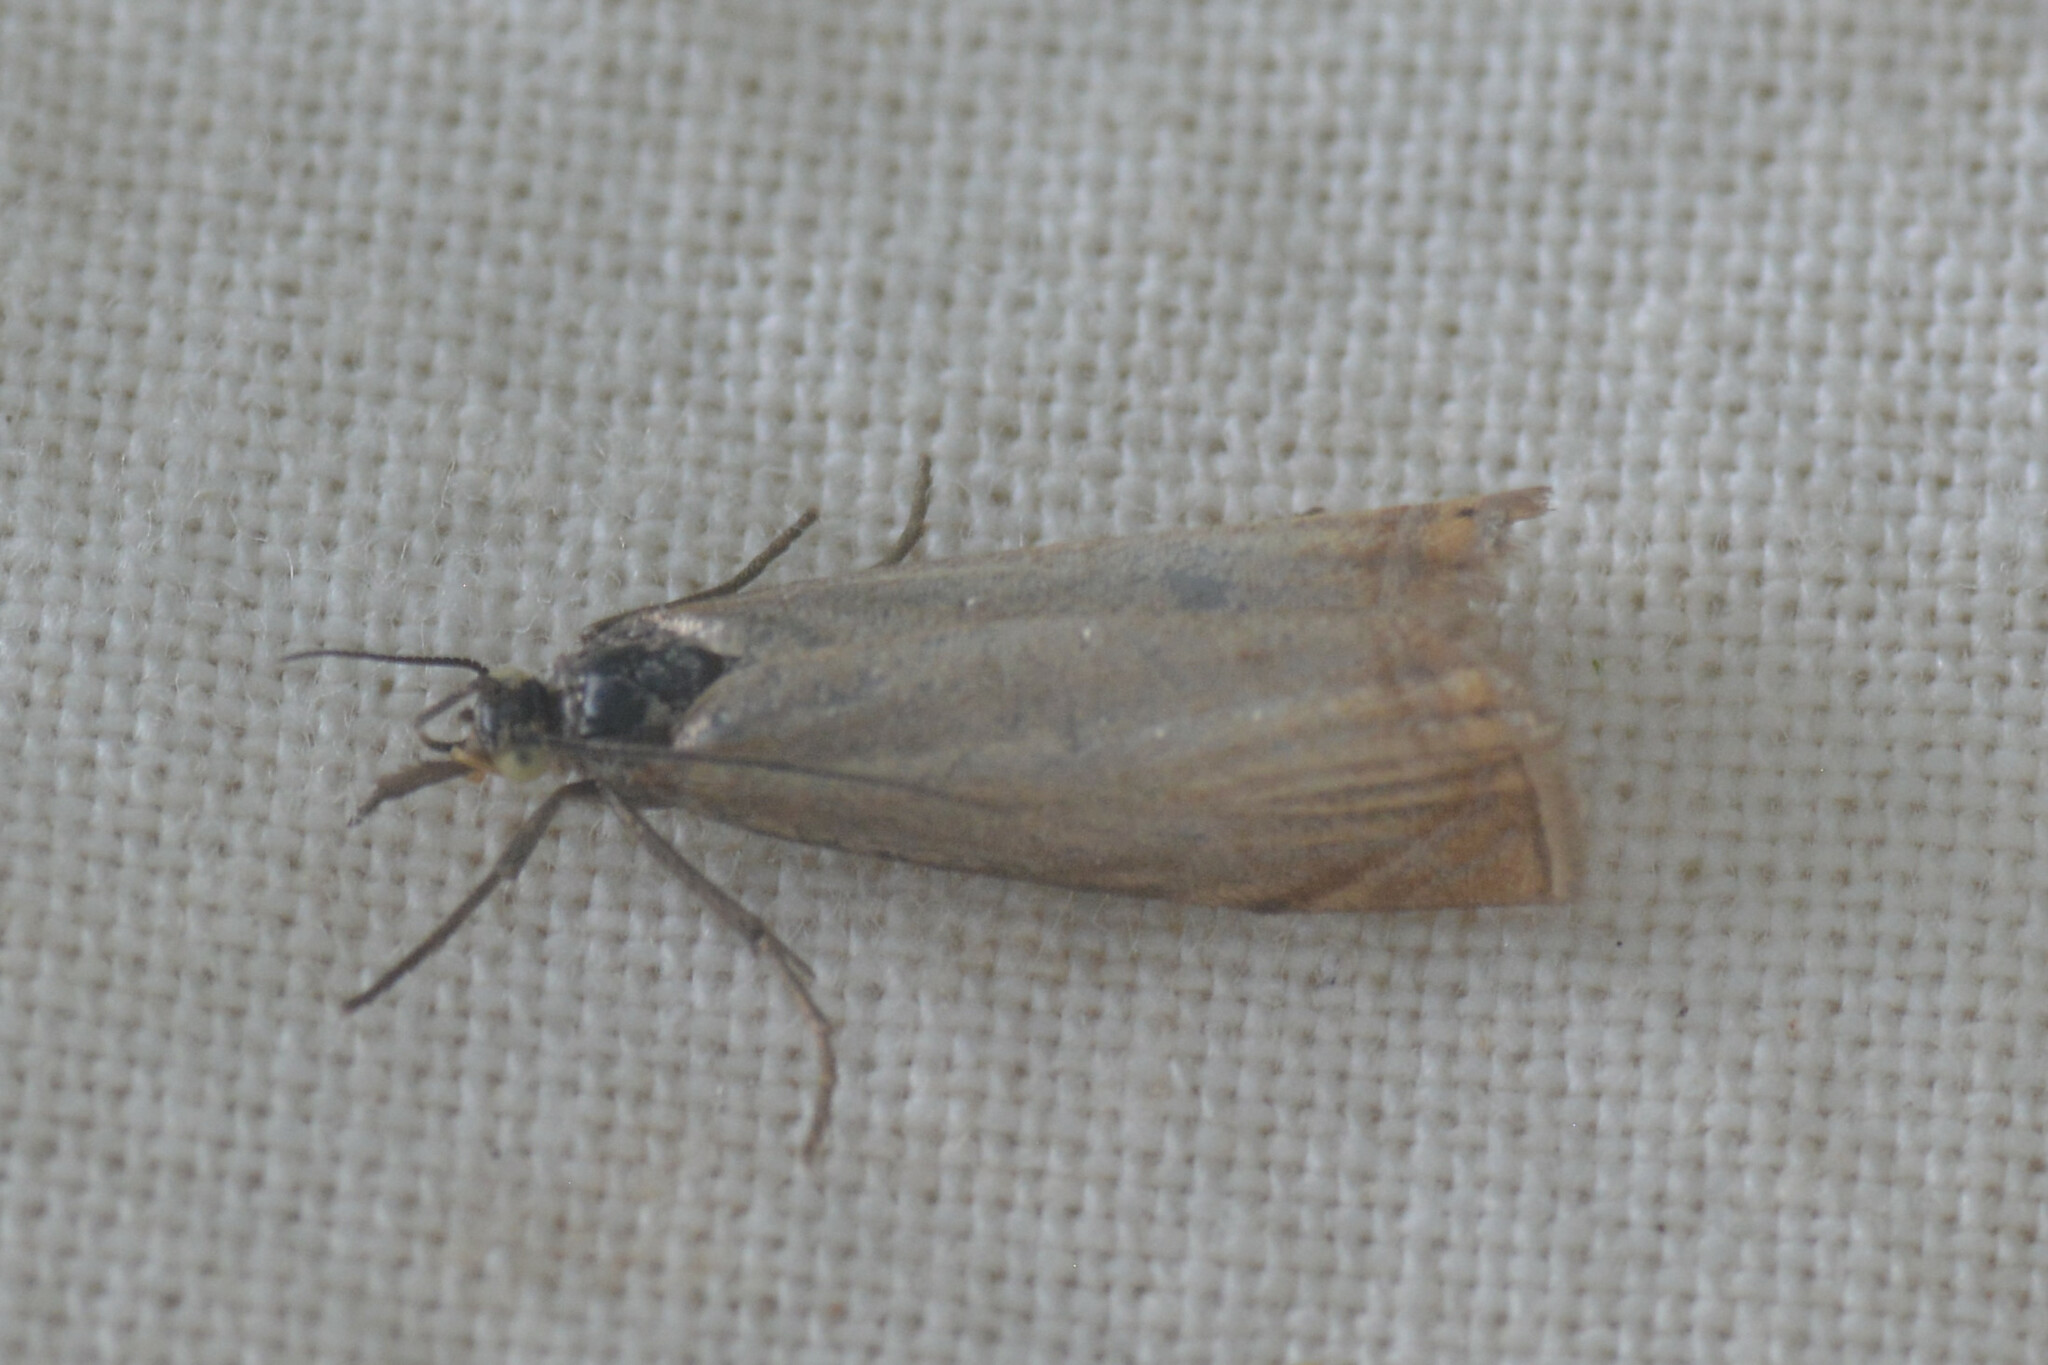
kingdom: Animalia
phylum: Arthropoda
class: Insecta
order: Lepidoptera
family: Crambidae
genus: Chrysoteuchia
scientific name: Chrysoteuchia culmella
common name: Garden grass-veneer
